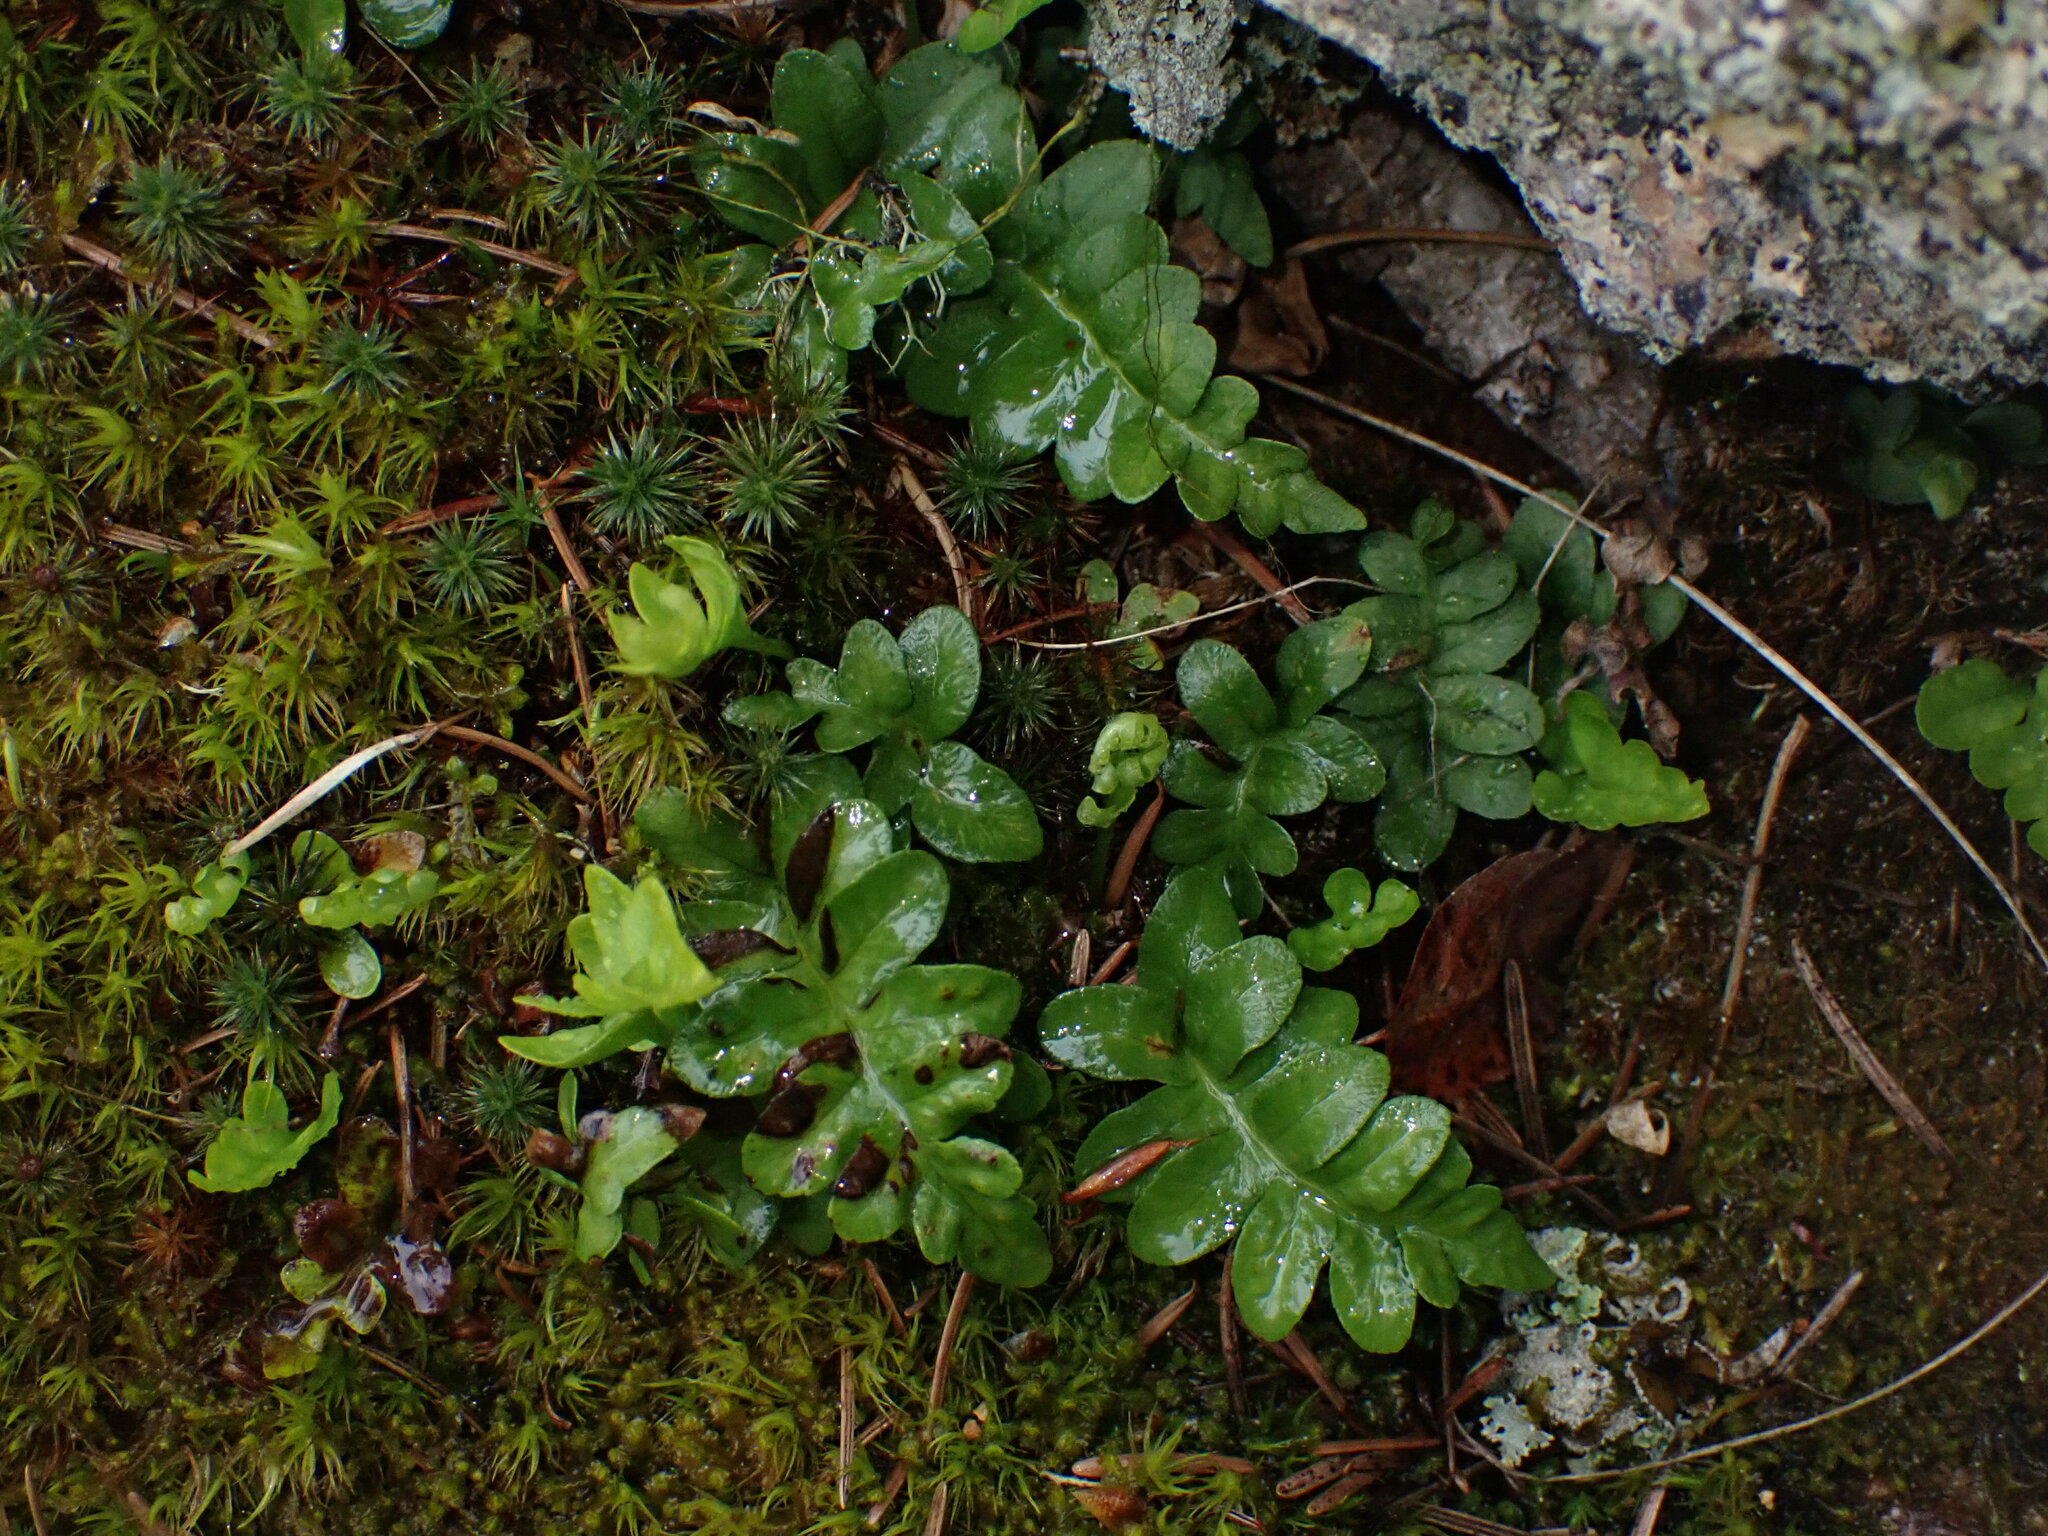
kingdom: Plantae
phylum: Tracheophyta
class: Polypodiopsida
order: Polypodiales
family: Polypodiaceae
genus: Polypodium
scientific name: Polypodium hesperium
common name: Western polypody
